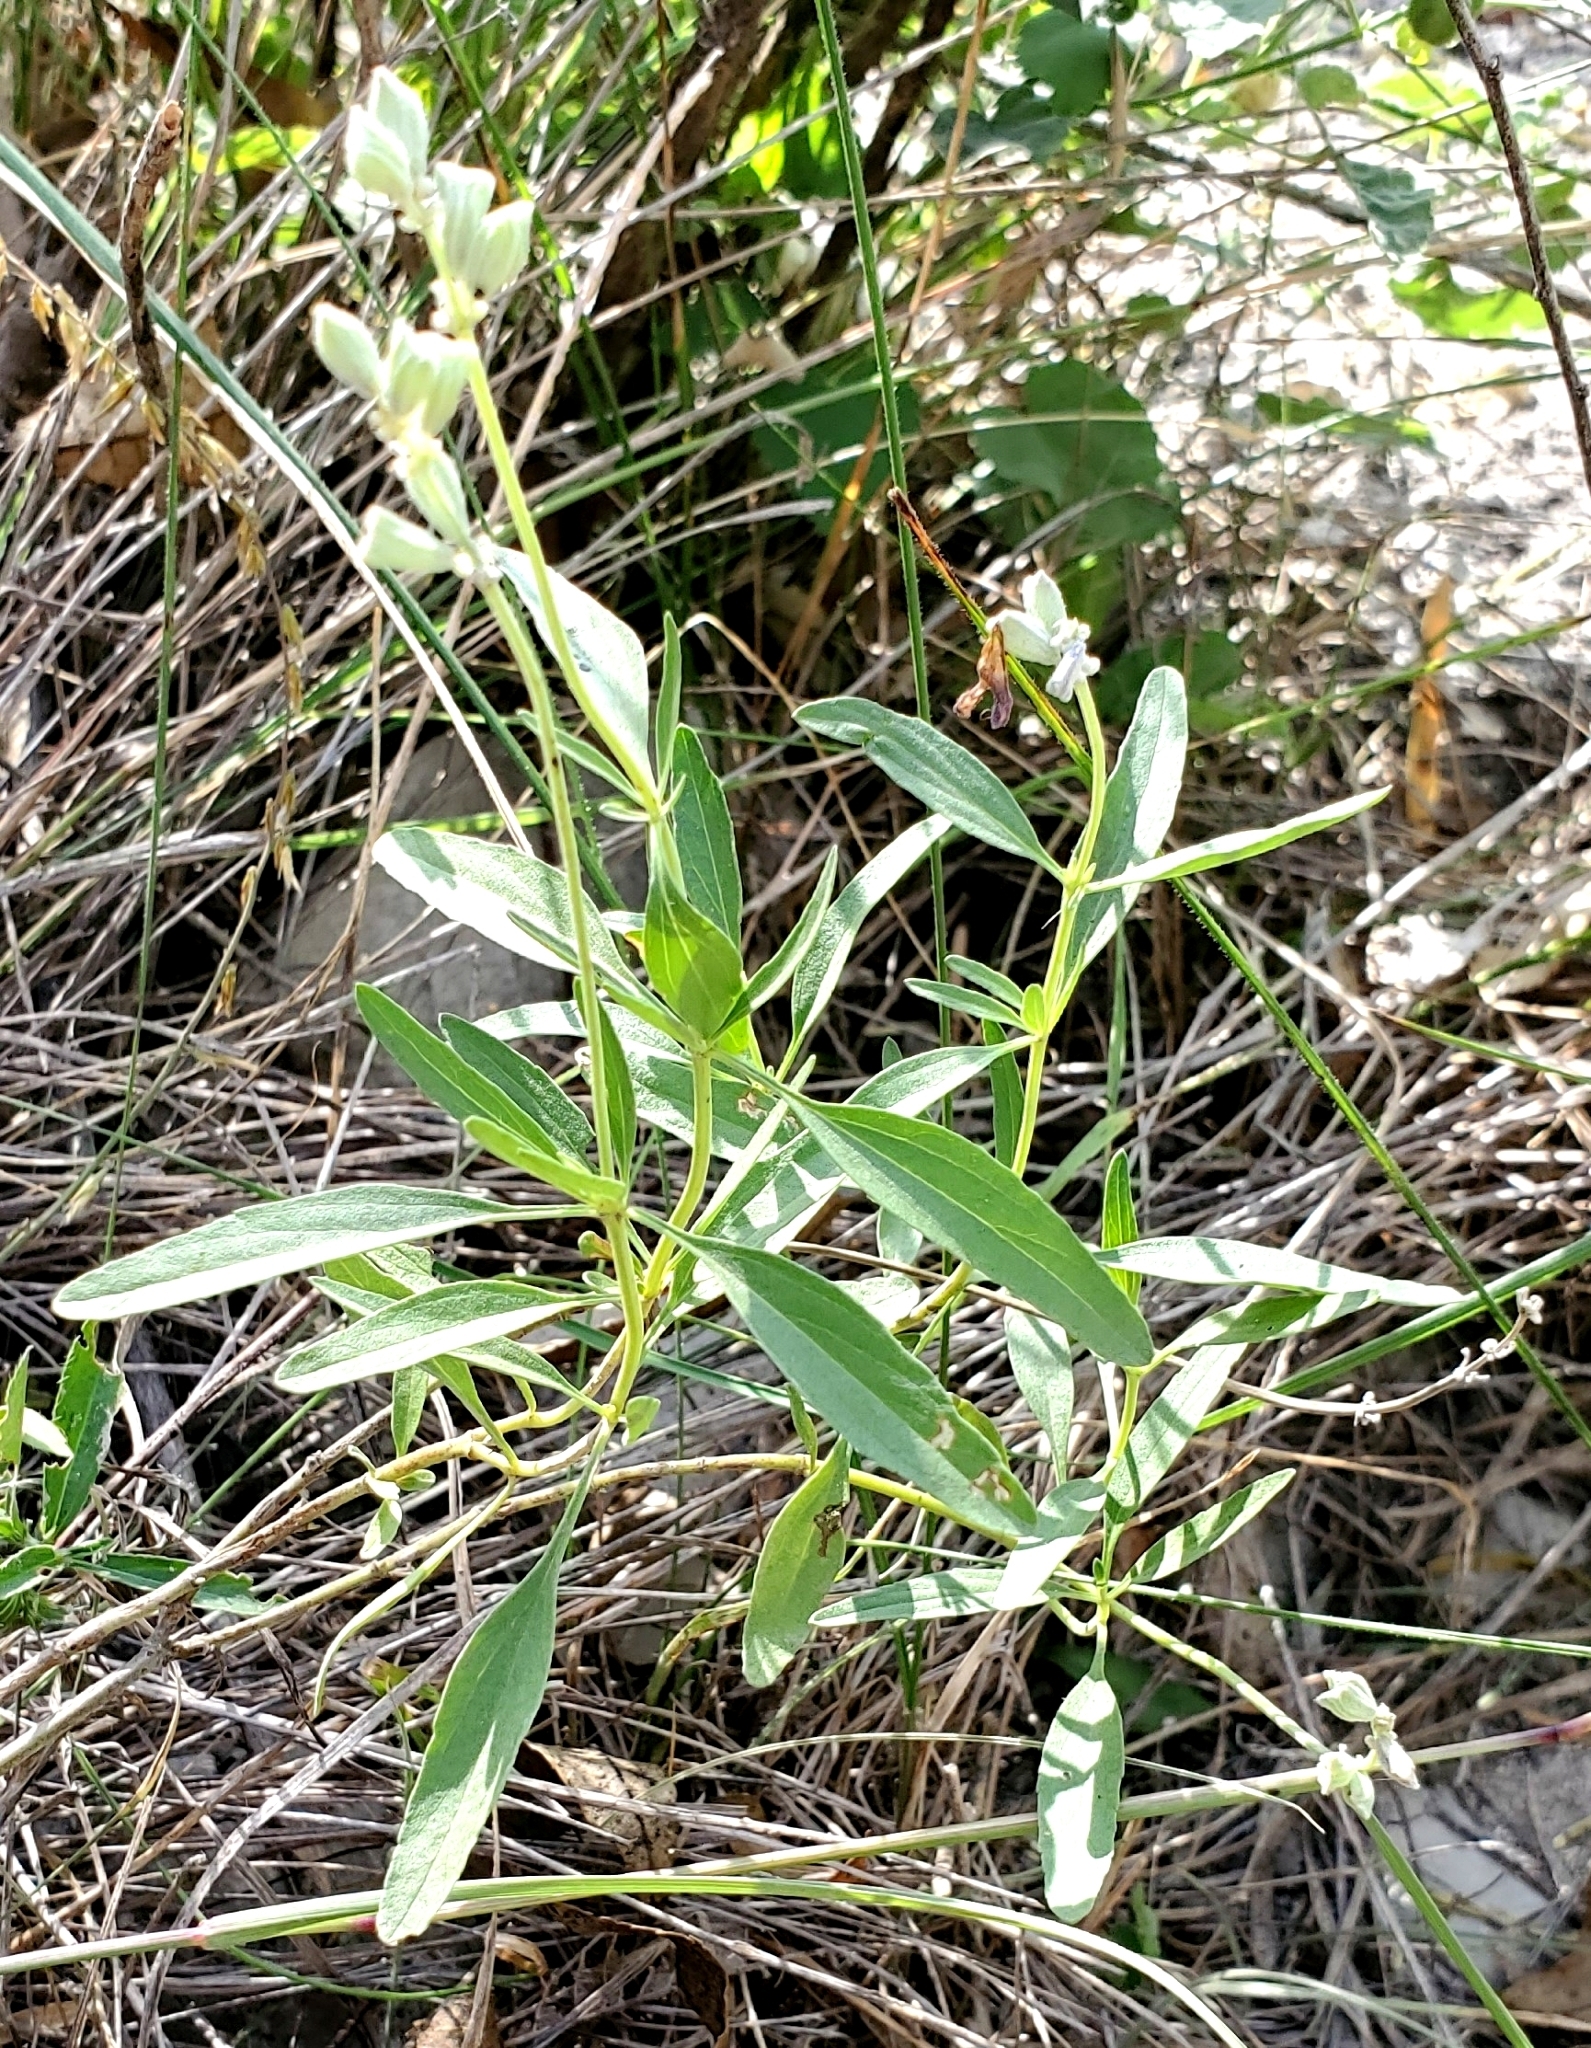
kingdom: Plantae
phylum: Tracheophyta
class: Magnoliopsida
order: Lamiales
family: Lamiaceae
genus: Salvia
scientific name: Salvia farinacea
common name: Mealy sage
